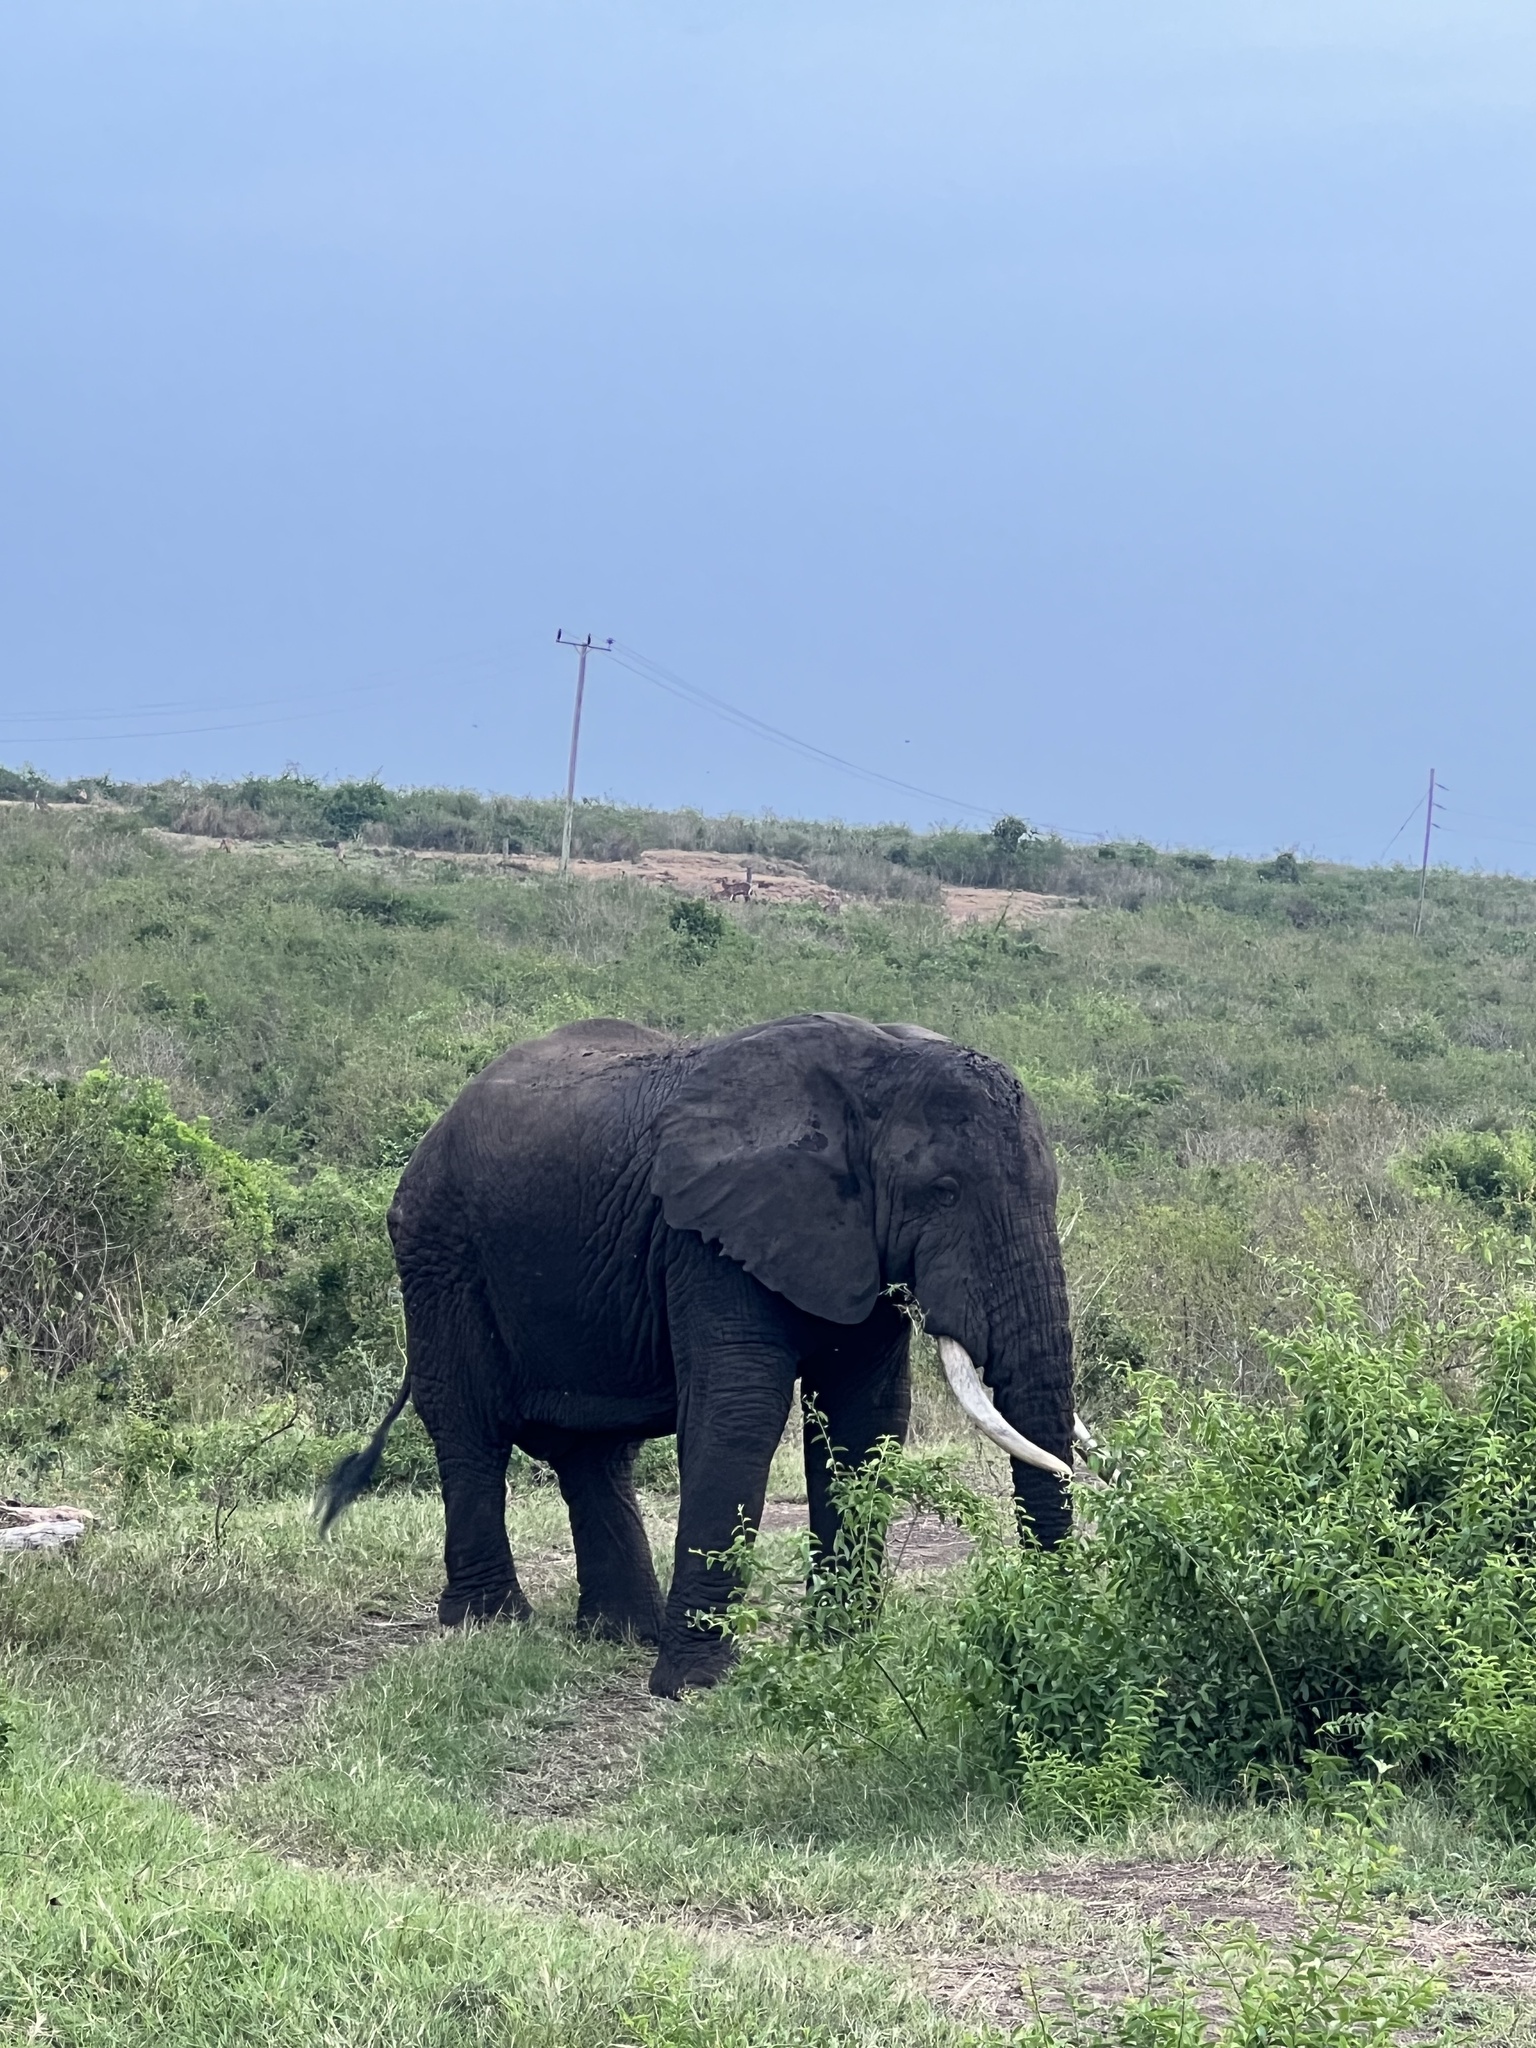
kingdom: Animalia
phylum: Chordata
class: Mammalia
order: Proboscidea
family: Elephantidae
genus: Loxodonta
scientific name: Loxodonta africana
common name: African elephant
